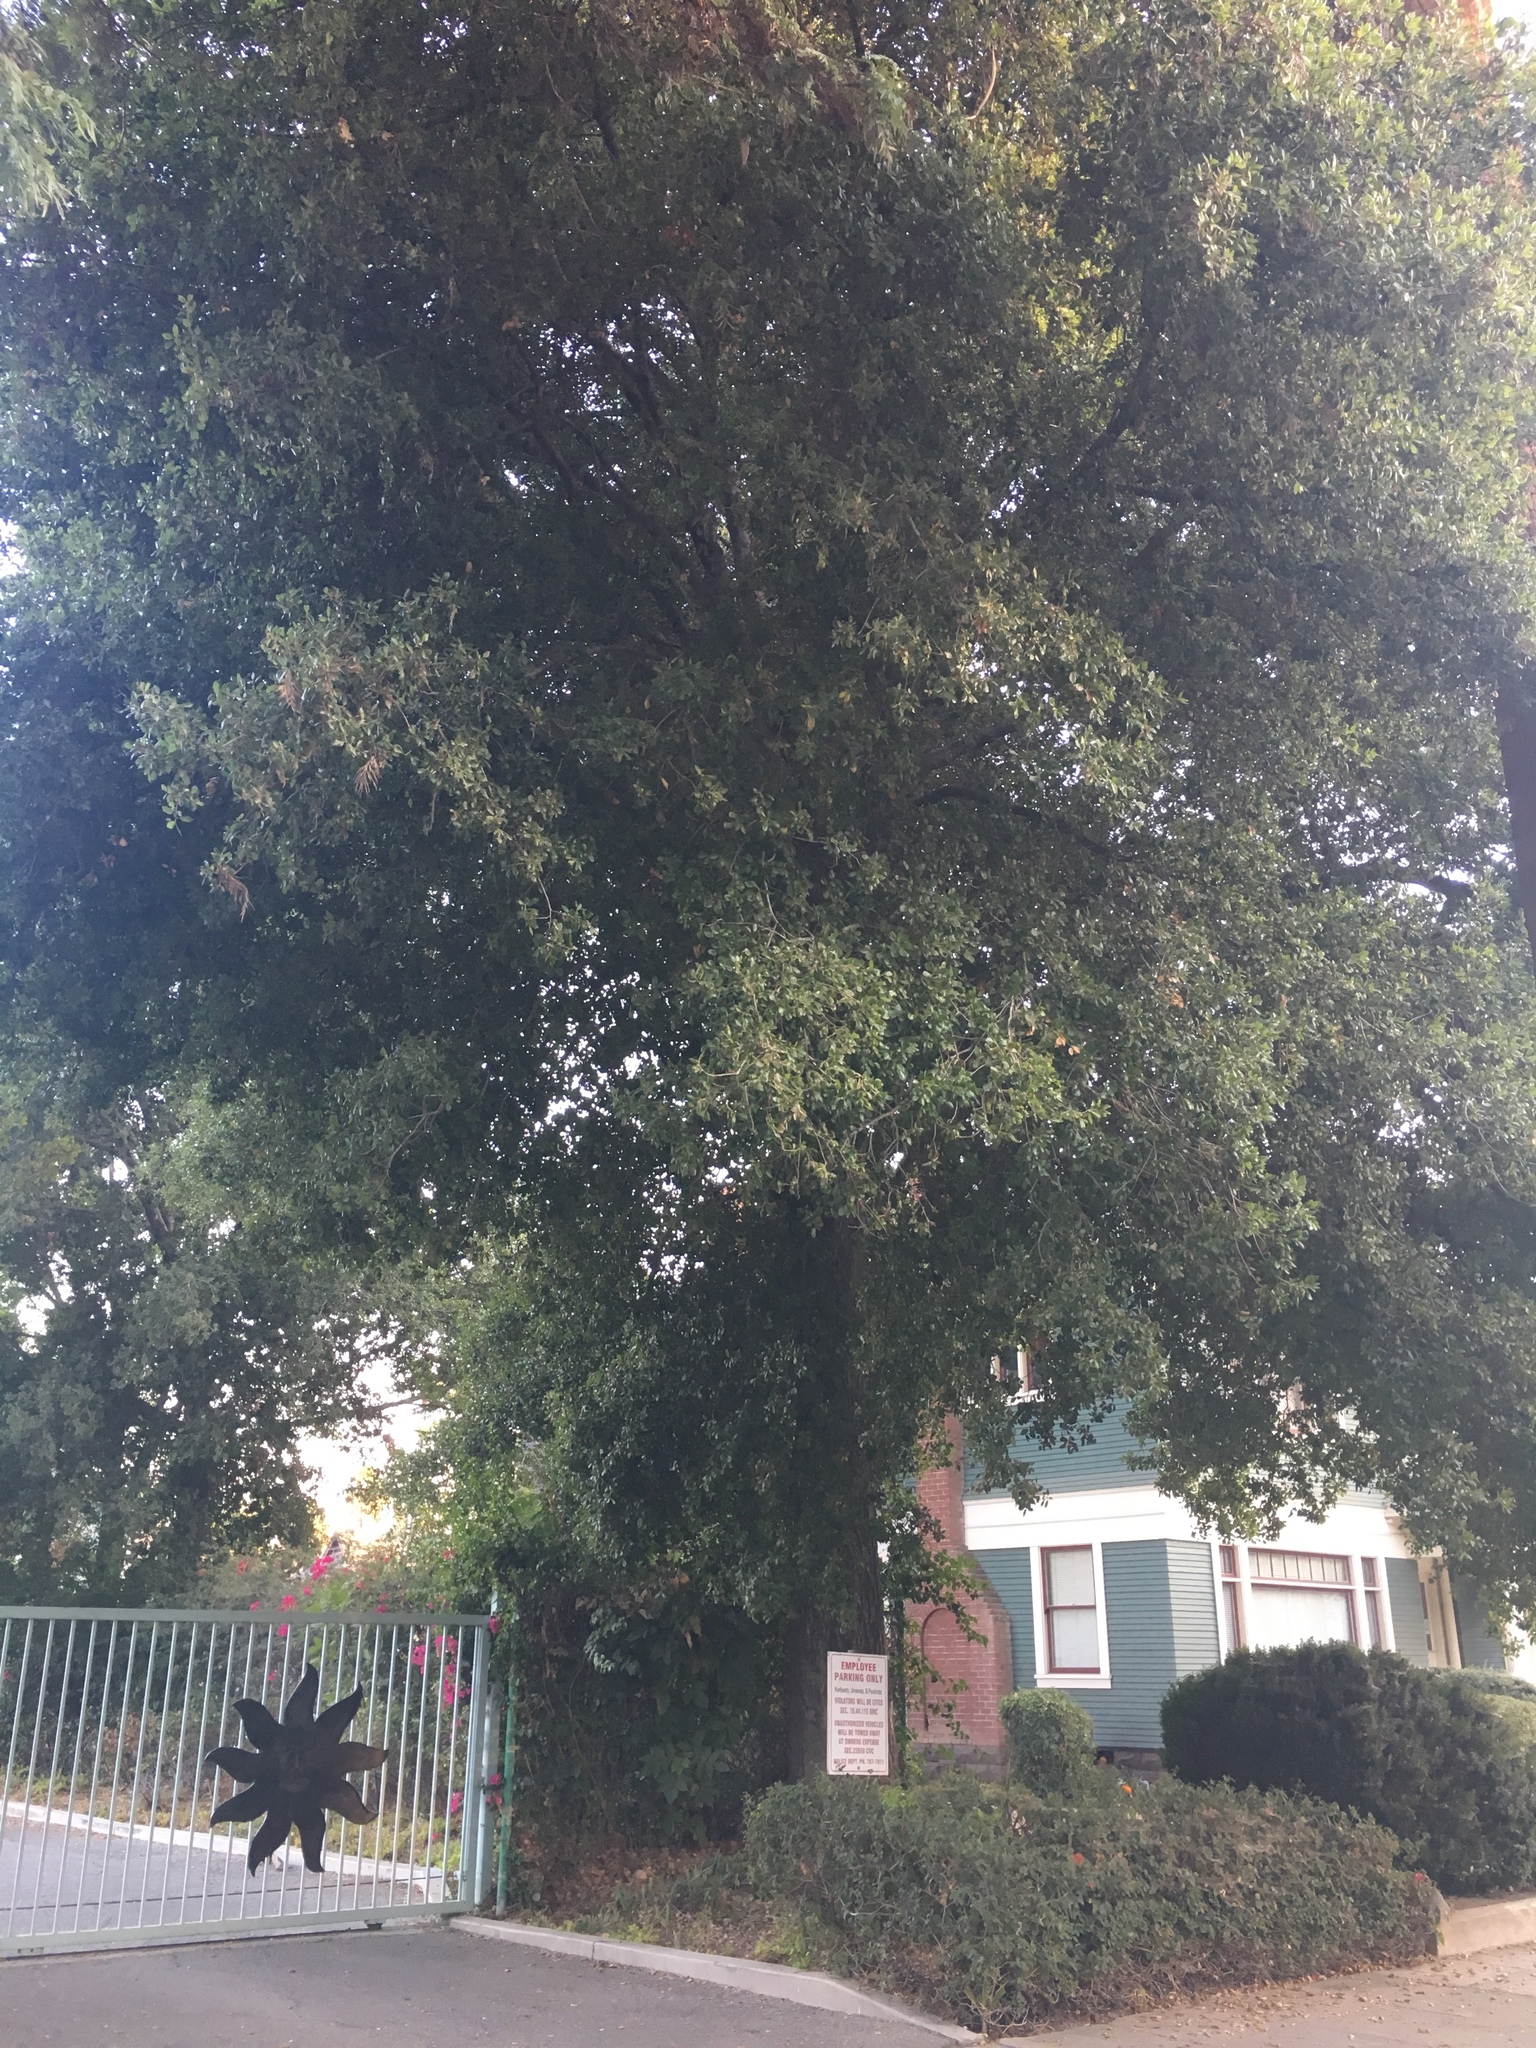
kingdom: Plantae
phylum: Tracheophyta
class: Magnoliopsida
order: Fagales
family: Fagaceae
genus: Quercus
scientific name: Quercus agrifolia
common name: California live oak
